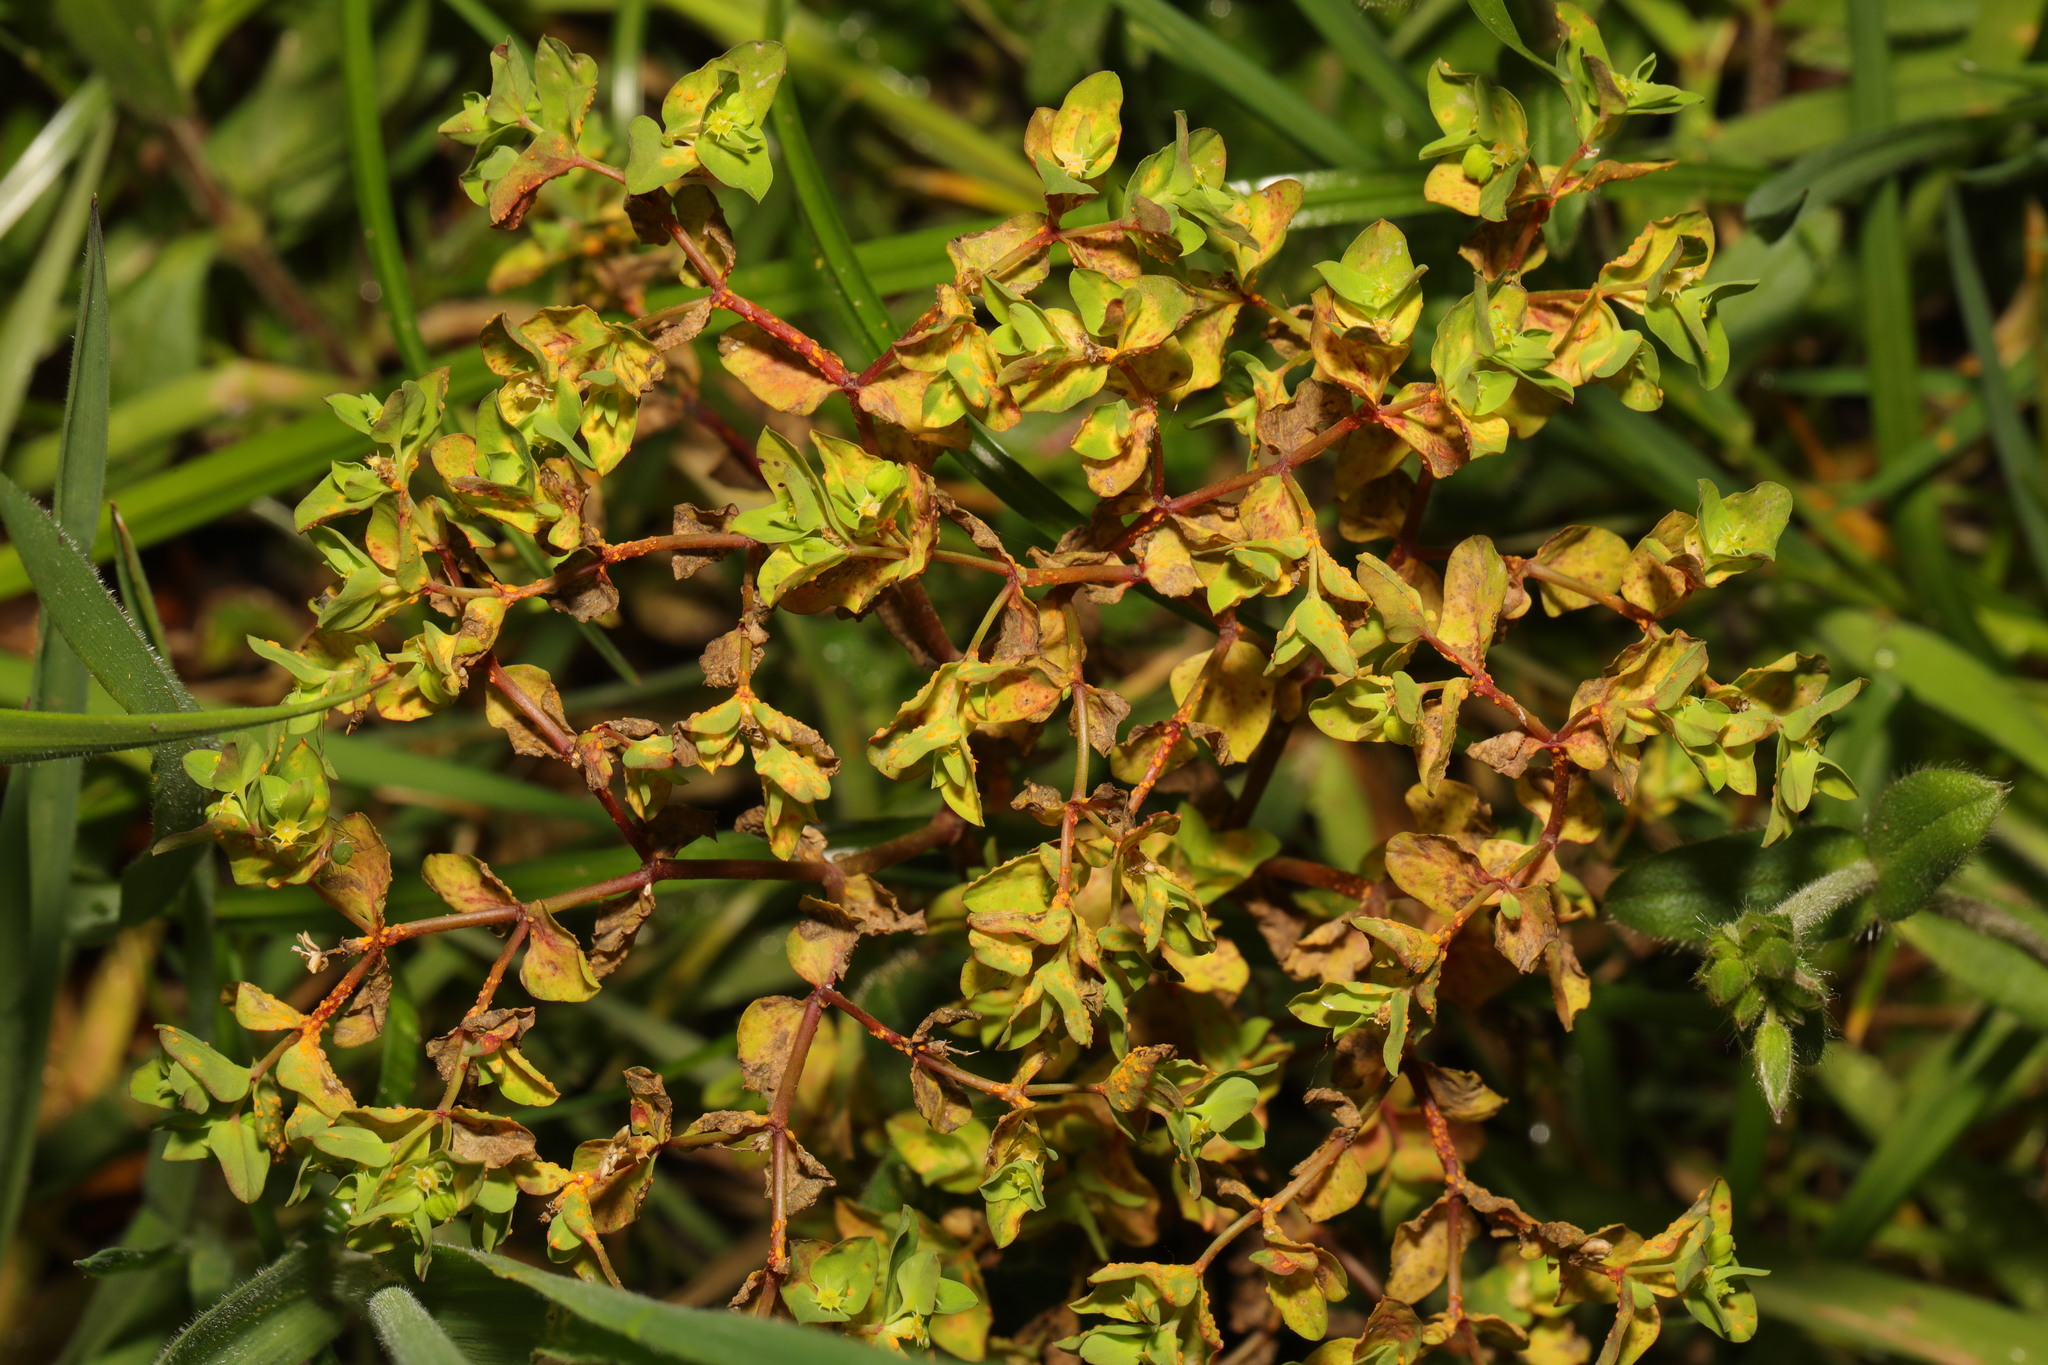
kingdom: Plantae
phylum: Tracheophyta
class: Magnoliopsida
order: Malpighiales
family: Euphorbiaceae
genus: Euphorbia
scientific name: Euphorbia peplus
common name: Petty spurge
